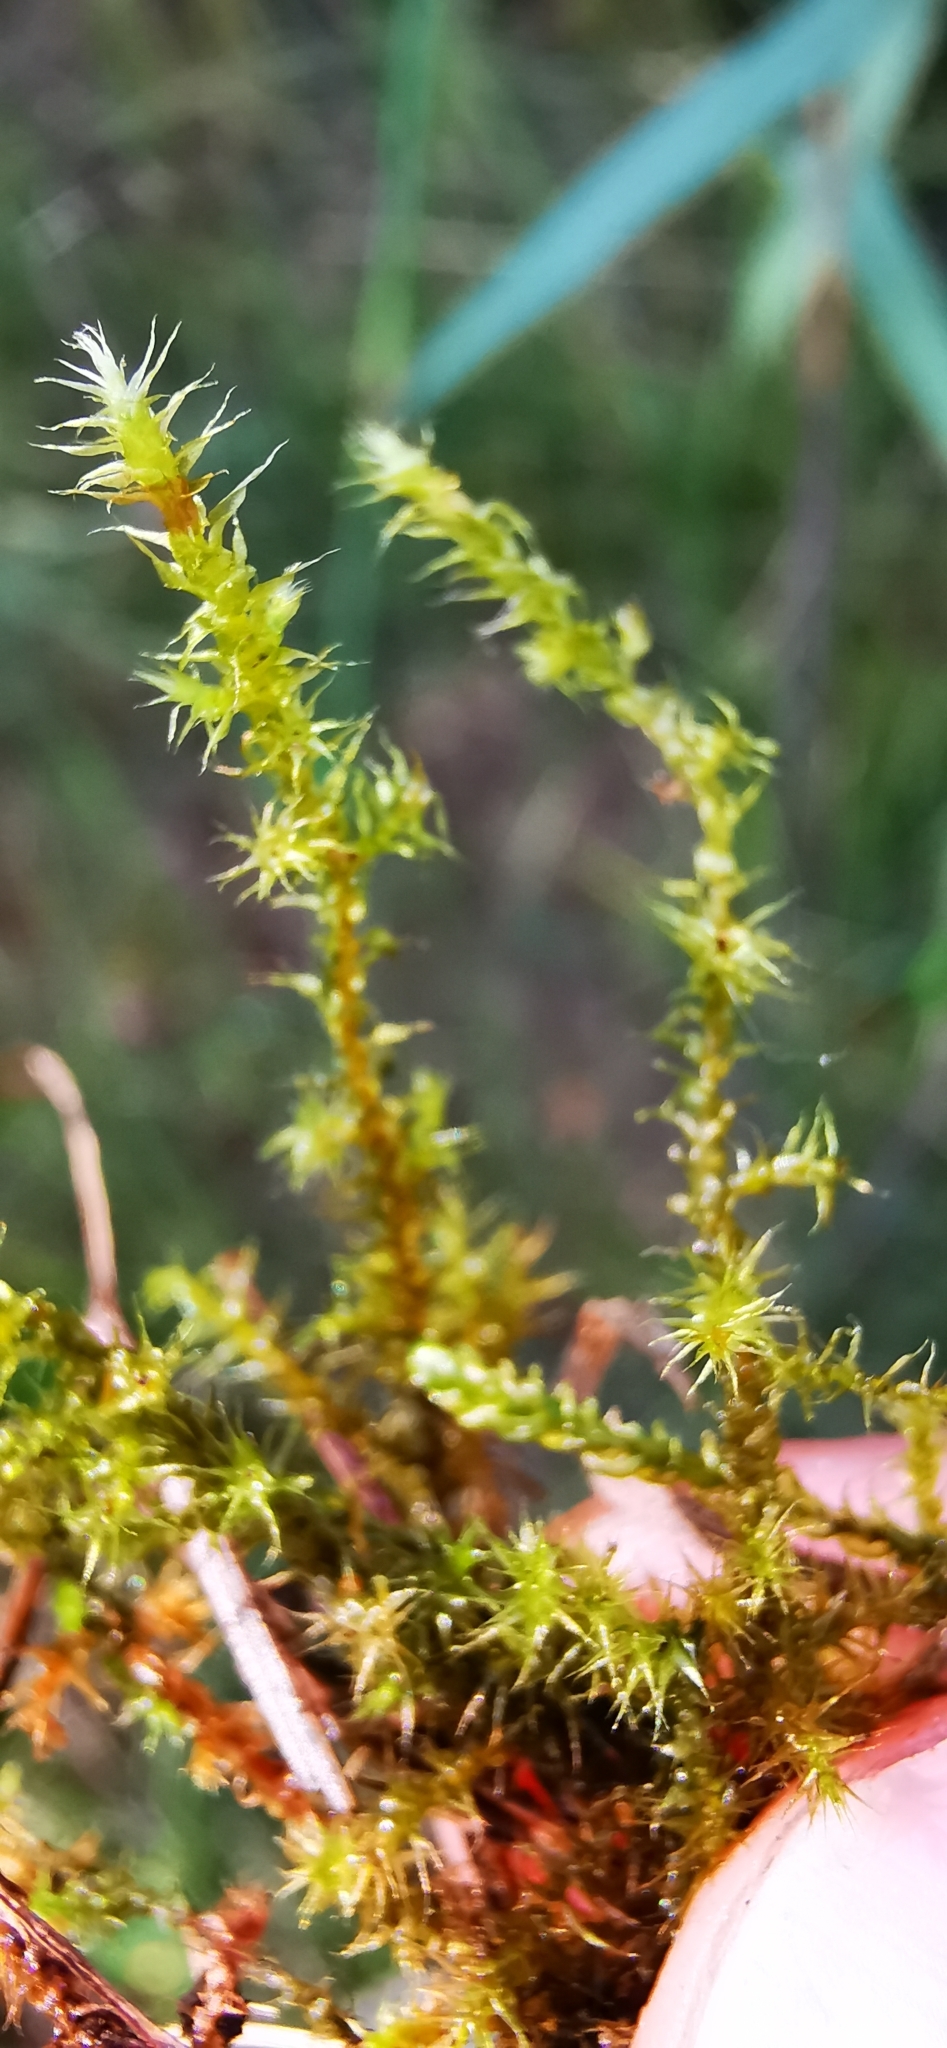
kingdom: Plantae
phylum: Bryophyta
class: Bryopsida
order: Hypnales
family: Amblystegiaceae
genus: Campylium
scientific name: Campylium stellatum
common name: Yellow starry fen moss
